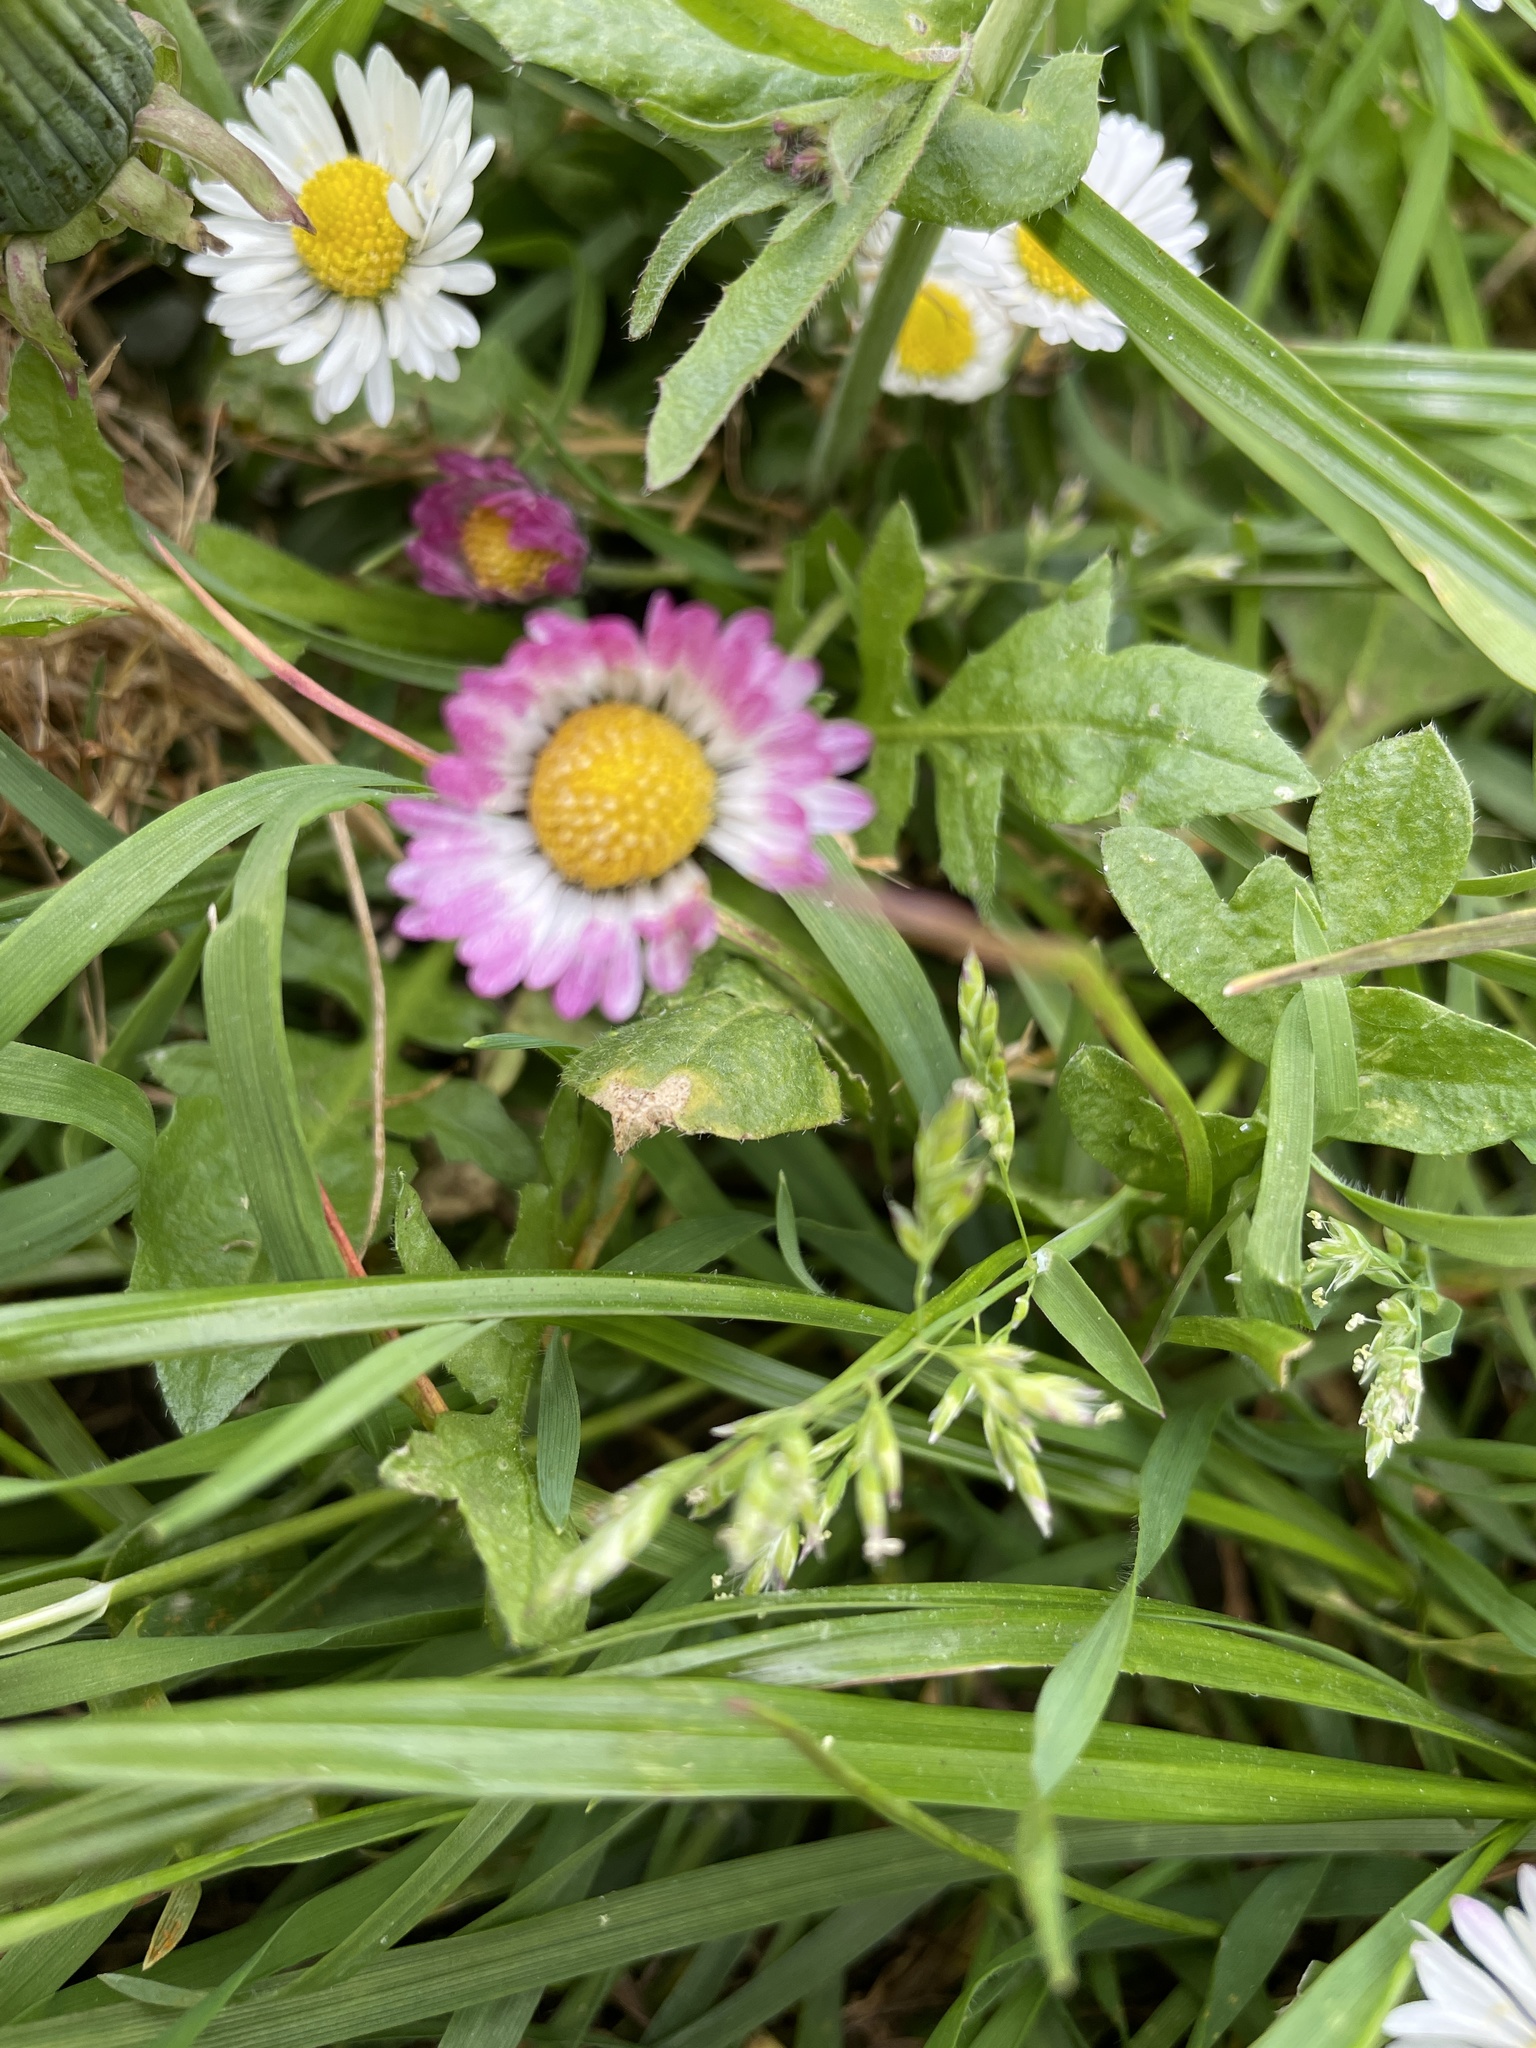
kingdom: Plantae
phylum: Tracheophyta
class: Magnoliopsida
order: Asterales
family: Asteraceae
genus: Bellis
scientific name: Bellis perennis
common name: Lawndaisy
